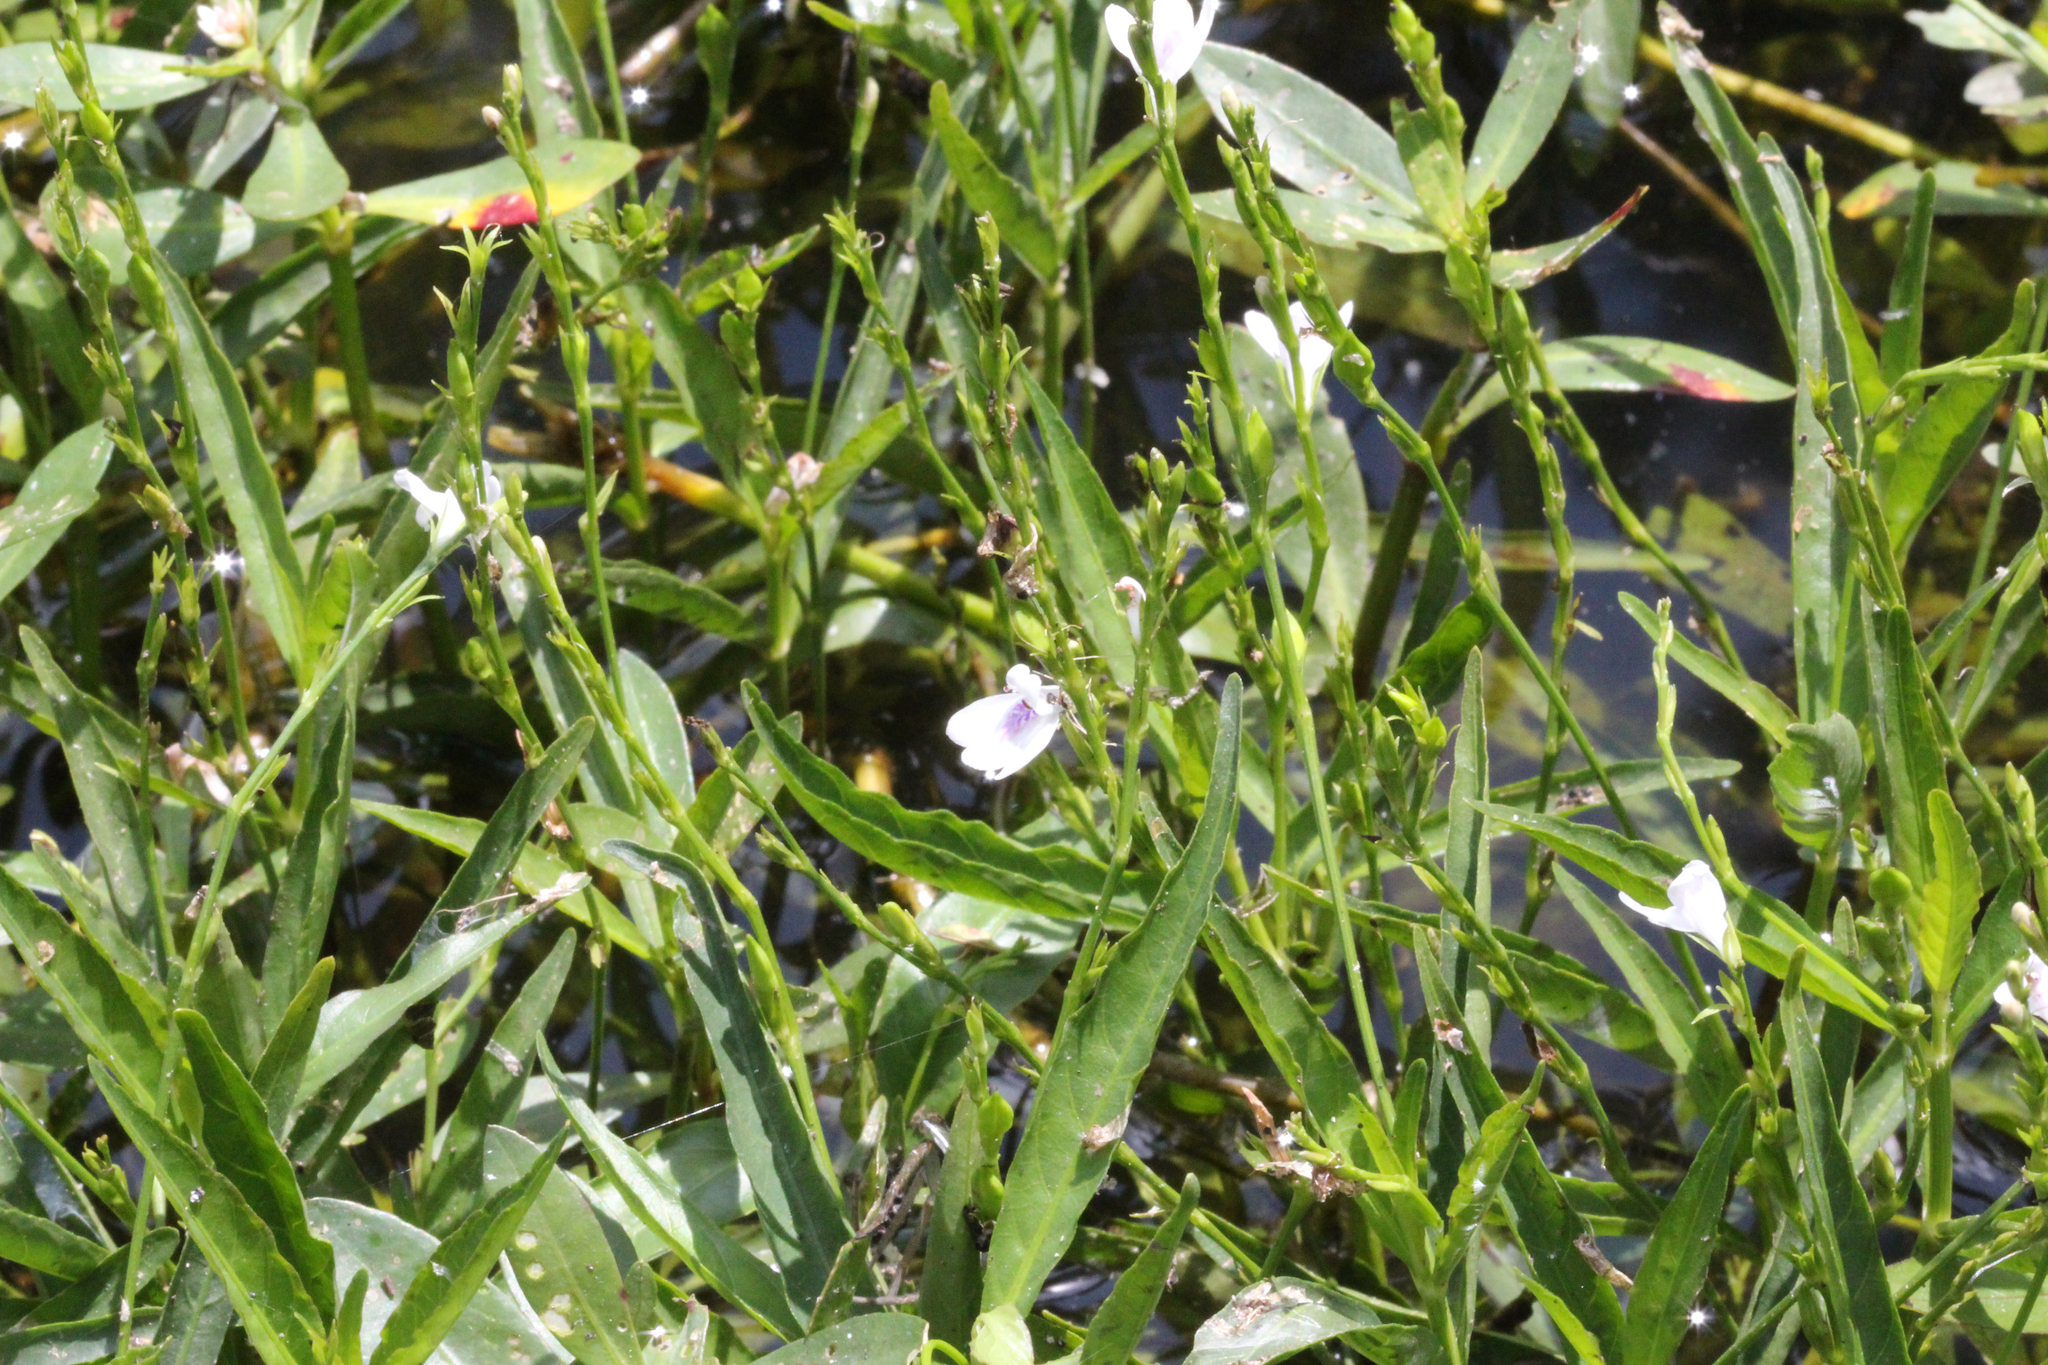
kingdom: Plantae
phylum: Tracheophyta
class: Magnoliopsida
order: Lamiales
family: Acanthaceae
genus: Justicia
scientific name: Justicia lanceolata
